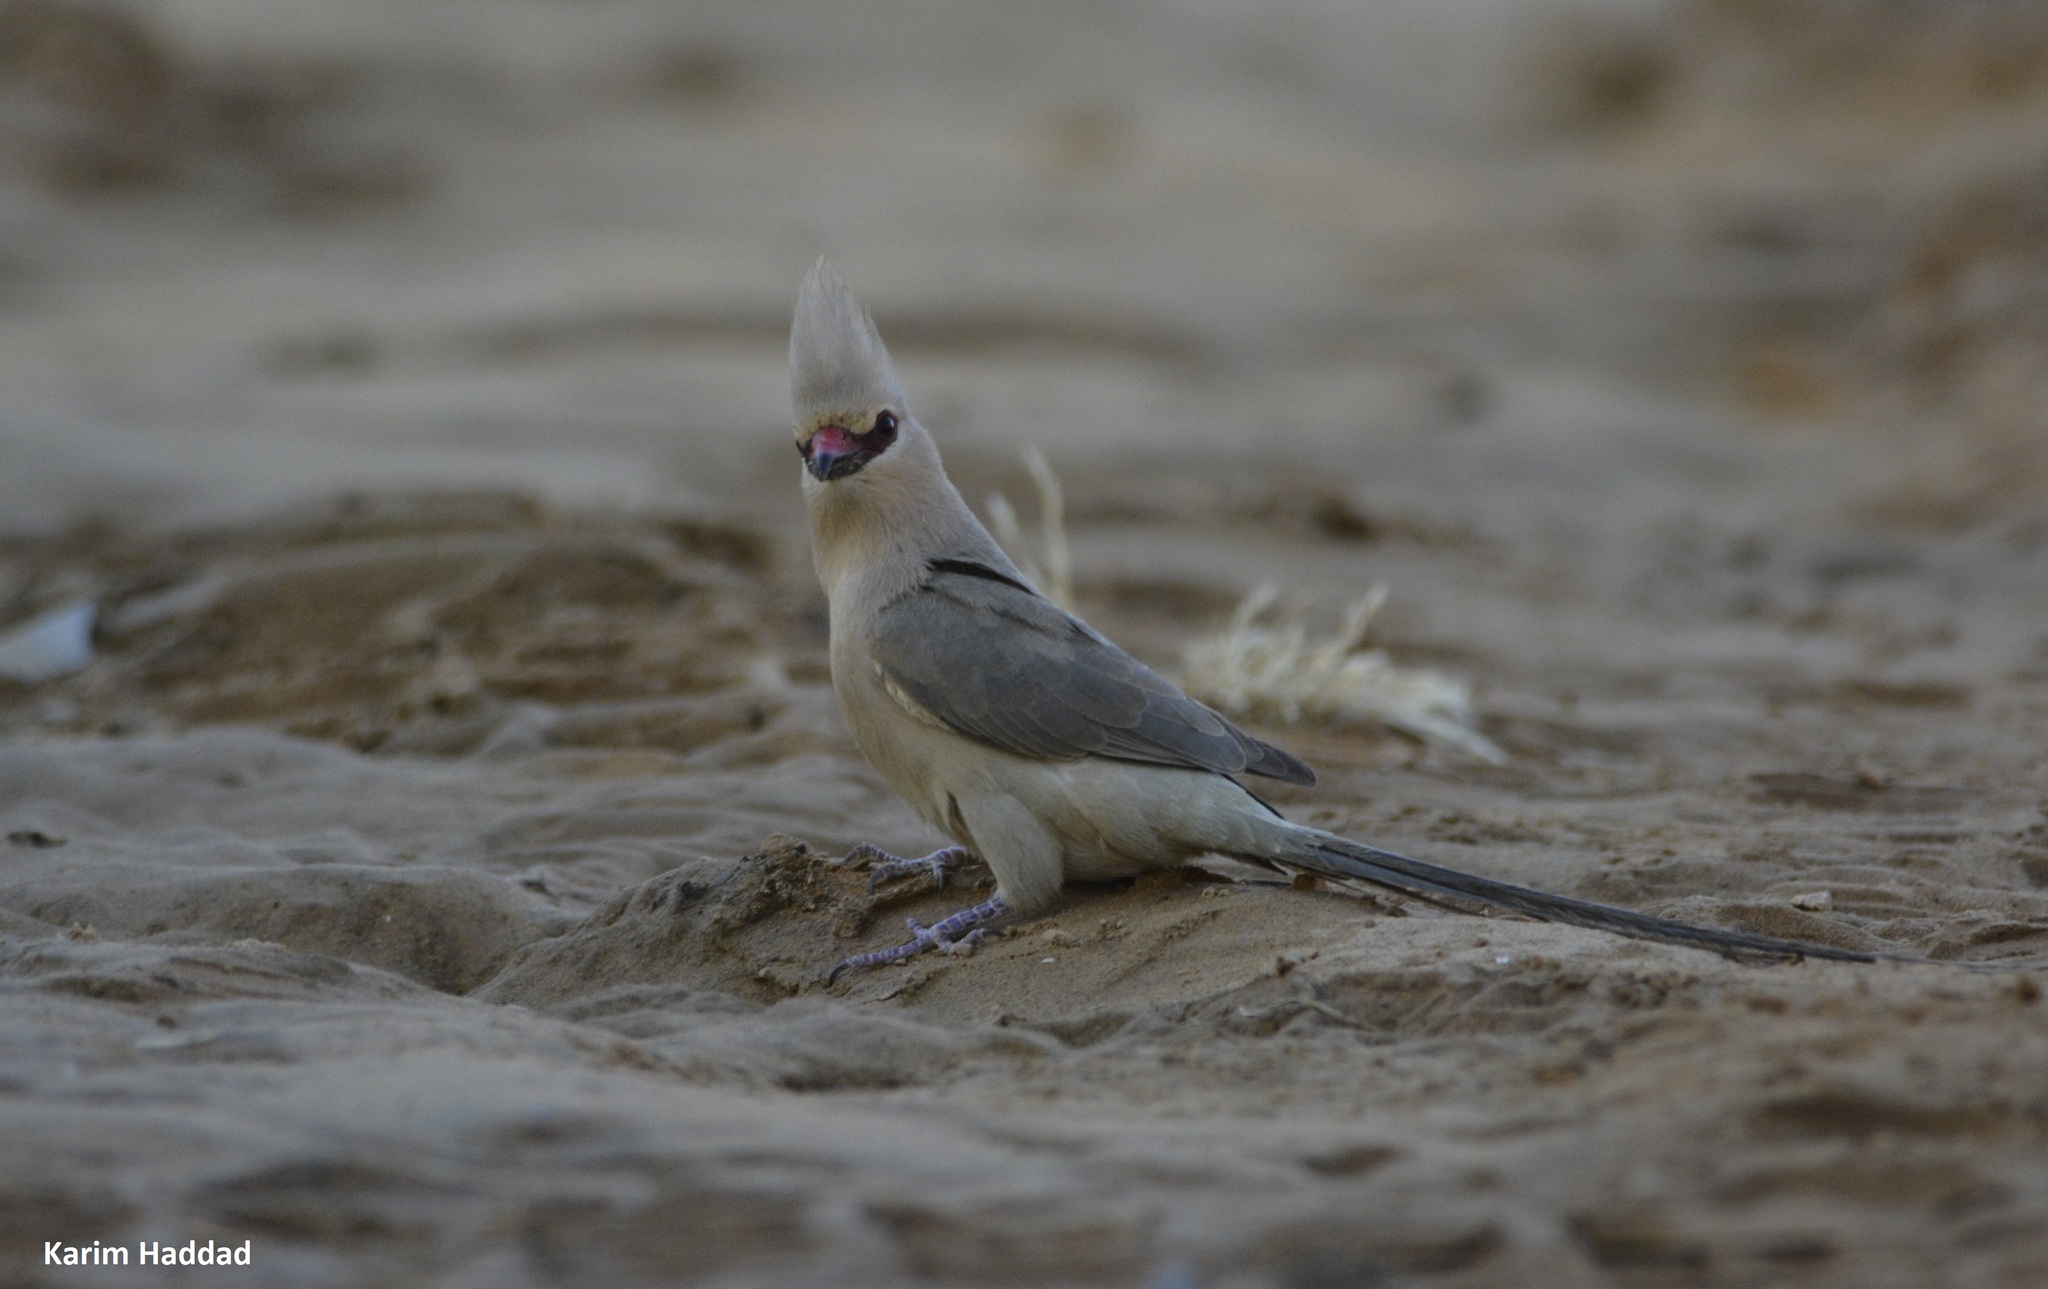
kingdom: Animalia
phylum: Chordata
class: Aves
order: Coliiformes
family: Coliidae
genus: Urocolius
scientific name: Urocolius macrourus
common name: Blue-naped mousebird
